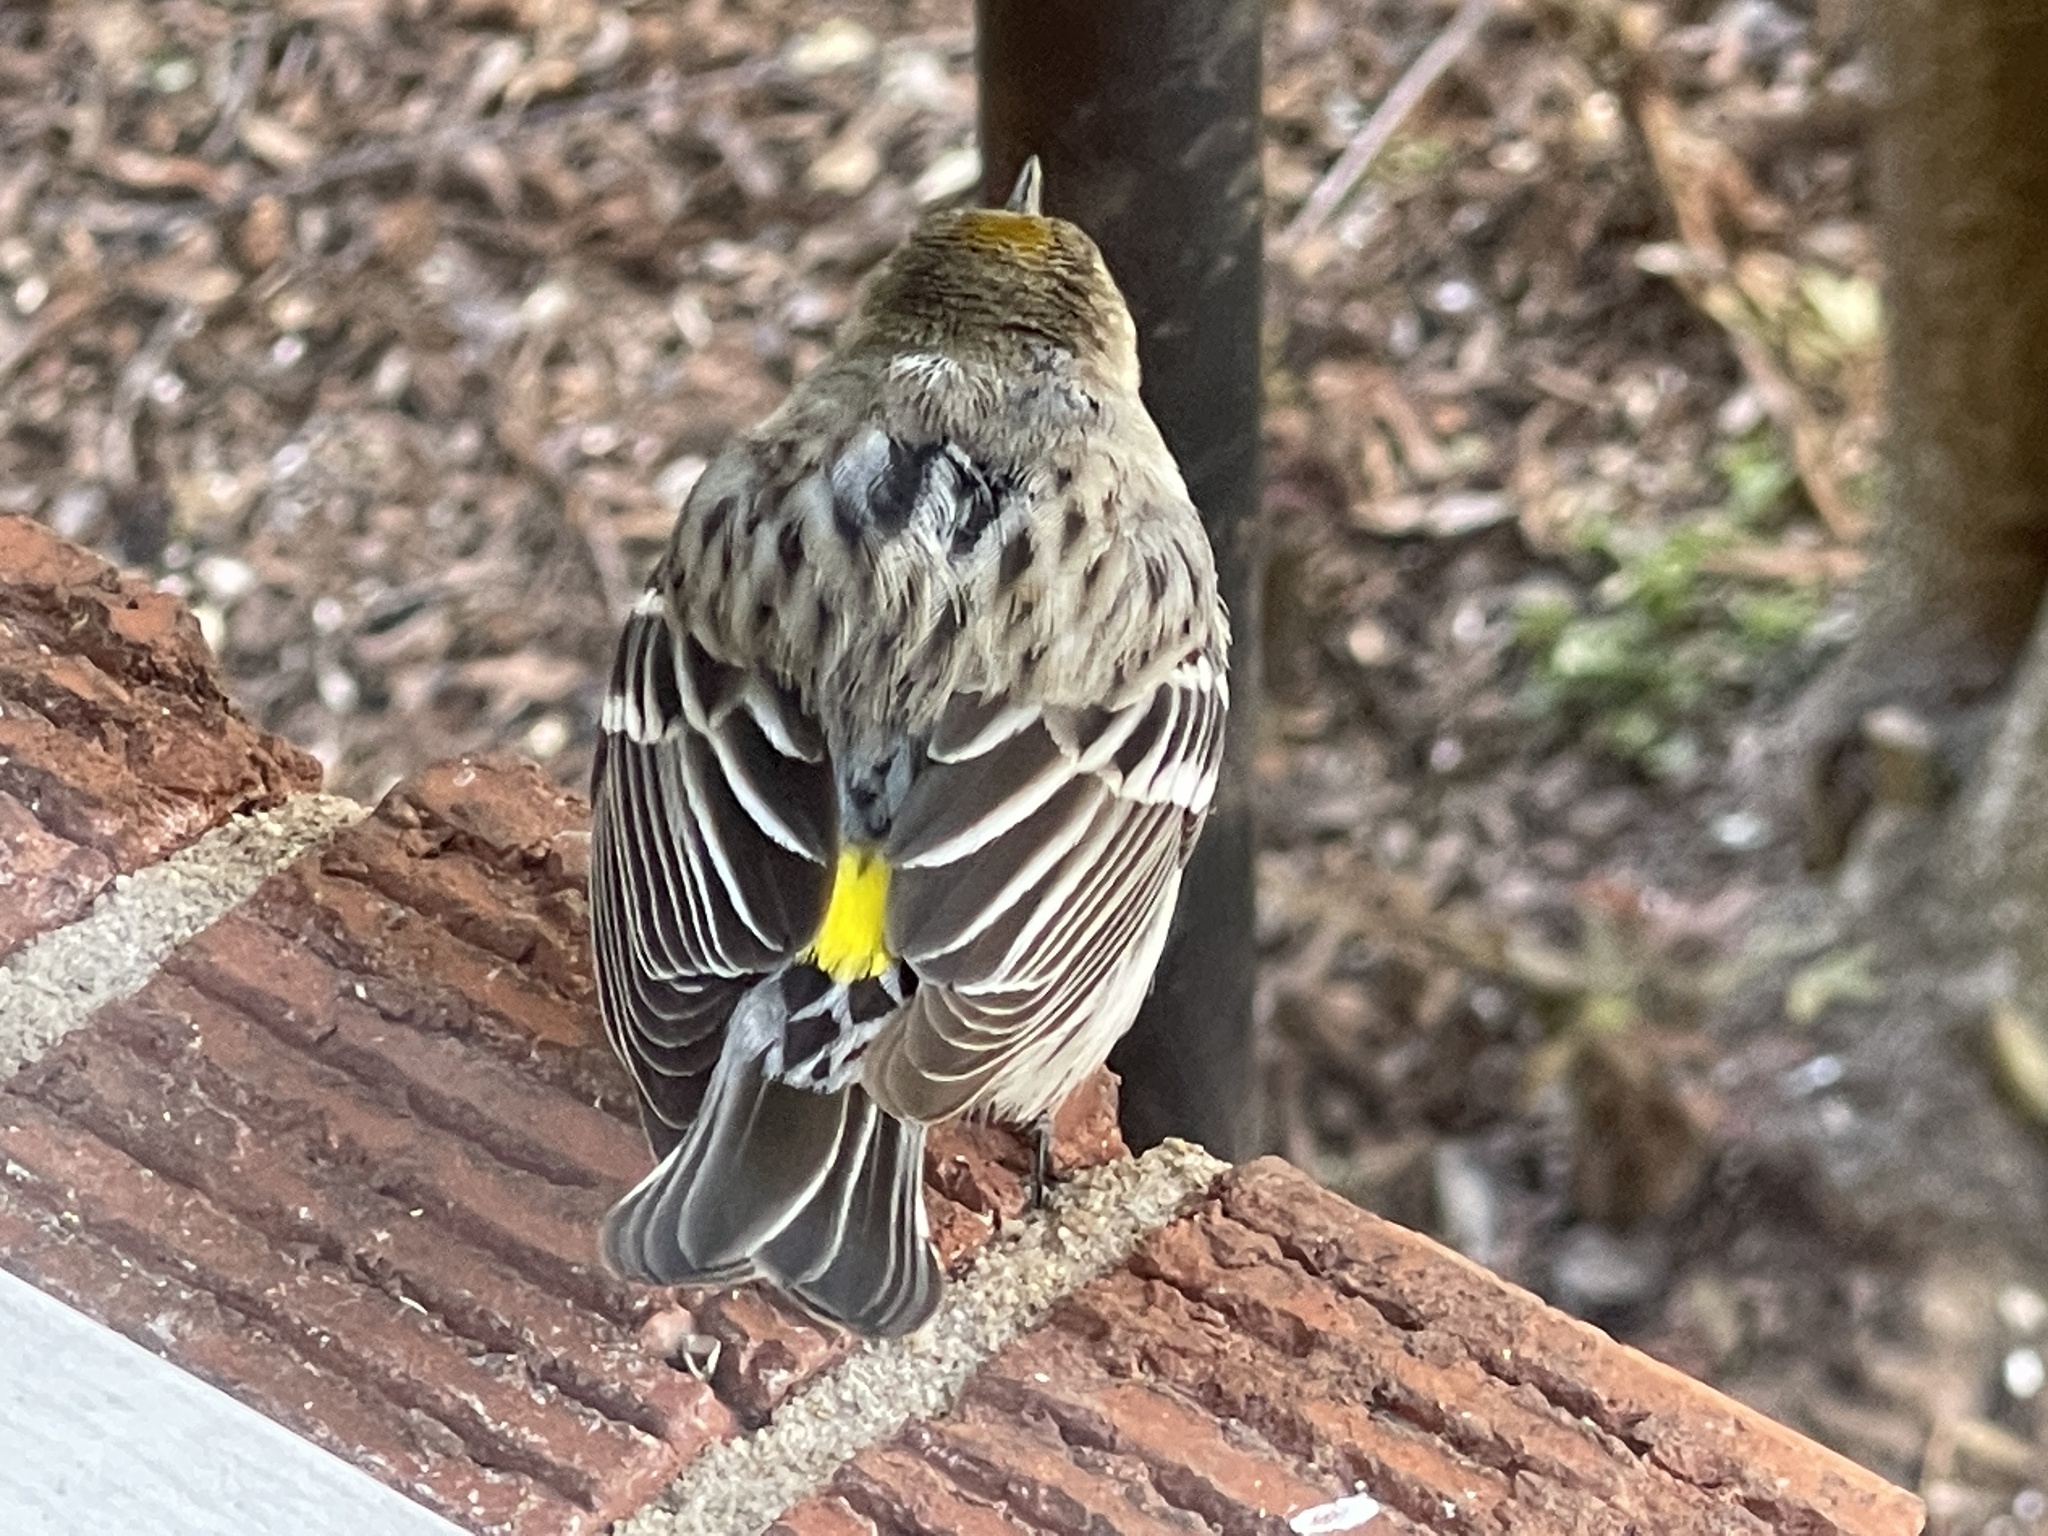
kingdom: Animalia
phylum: Chordata
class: Aves
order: Passeriformes
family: Parulidae
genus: Setophaga
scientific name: Setophaga coronata
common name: Myrtle warbler
